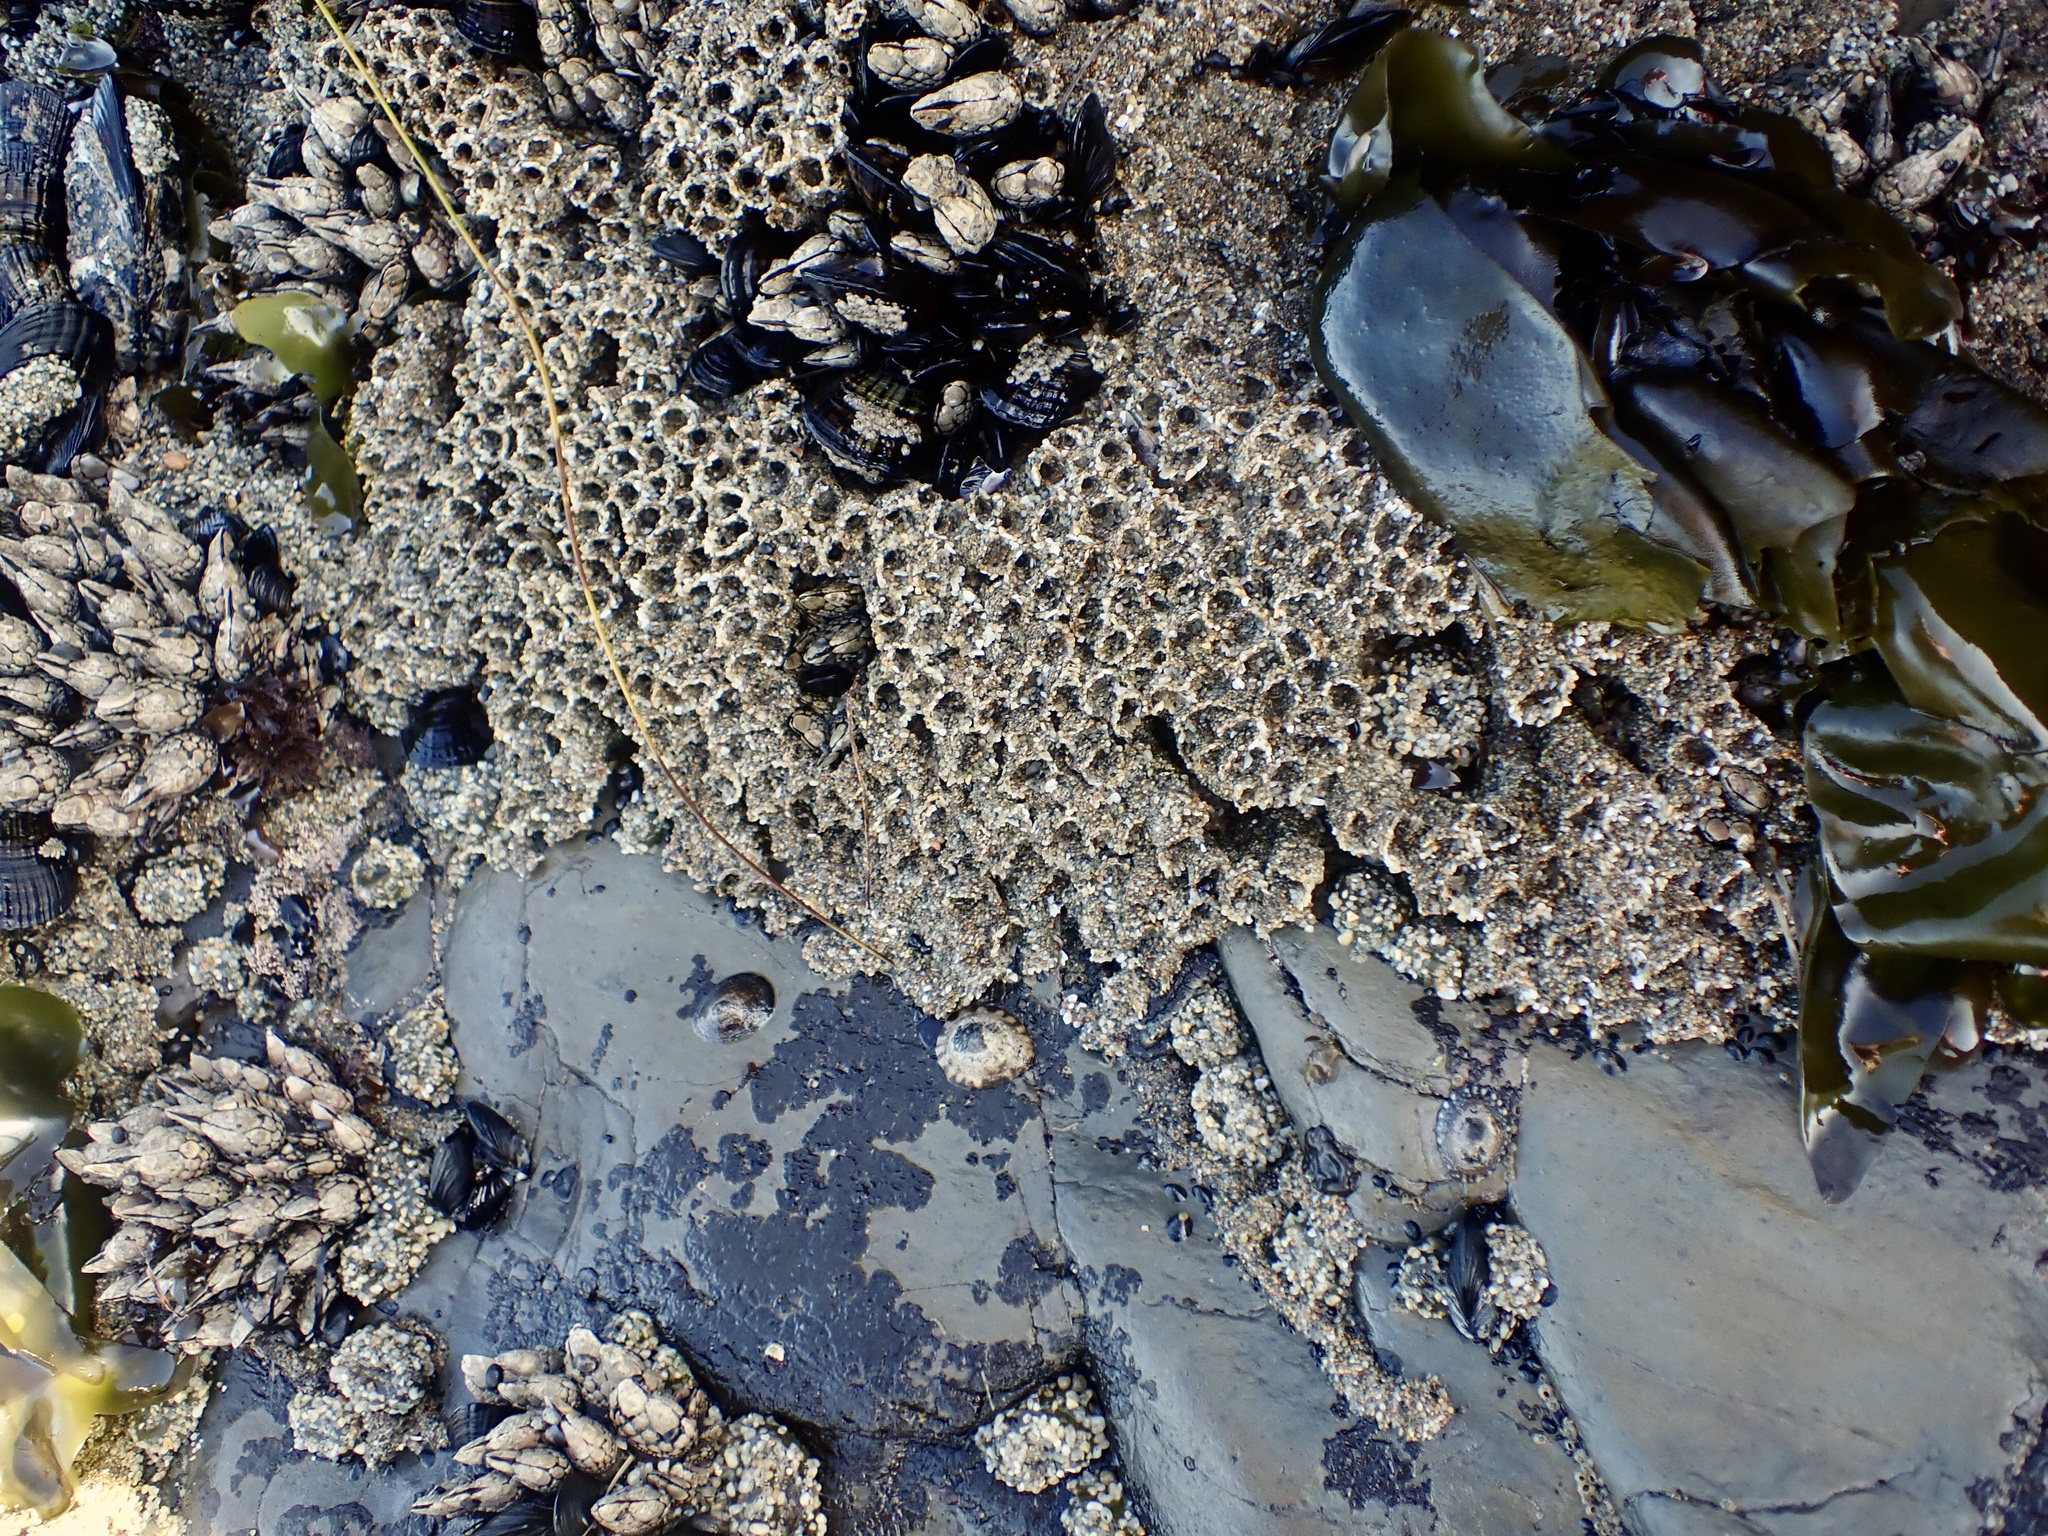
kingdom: Animalia
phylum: Annelida
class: Polychaeta
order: Sabellida
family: Sabellariidae
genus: Phragmatopoma
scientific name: Phragmatopoma californica
